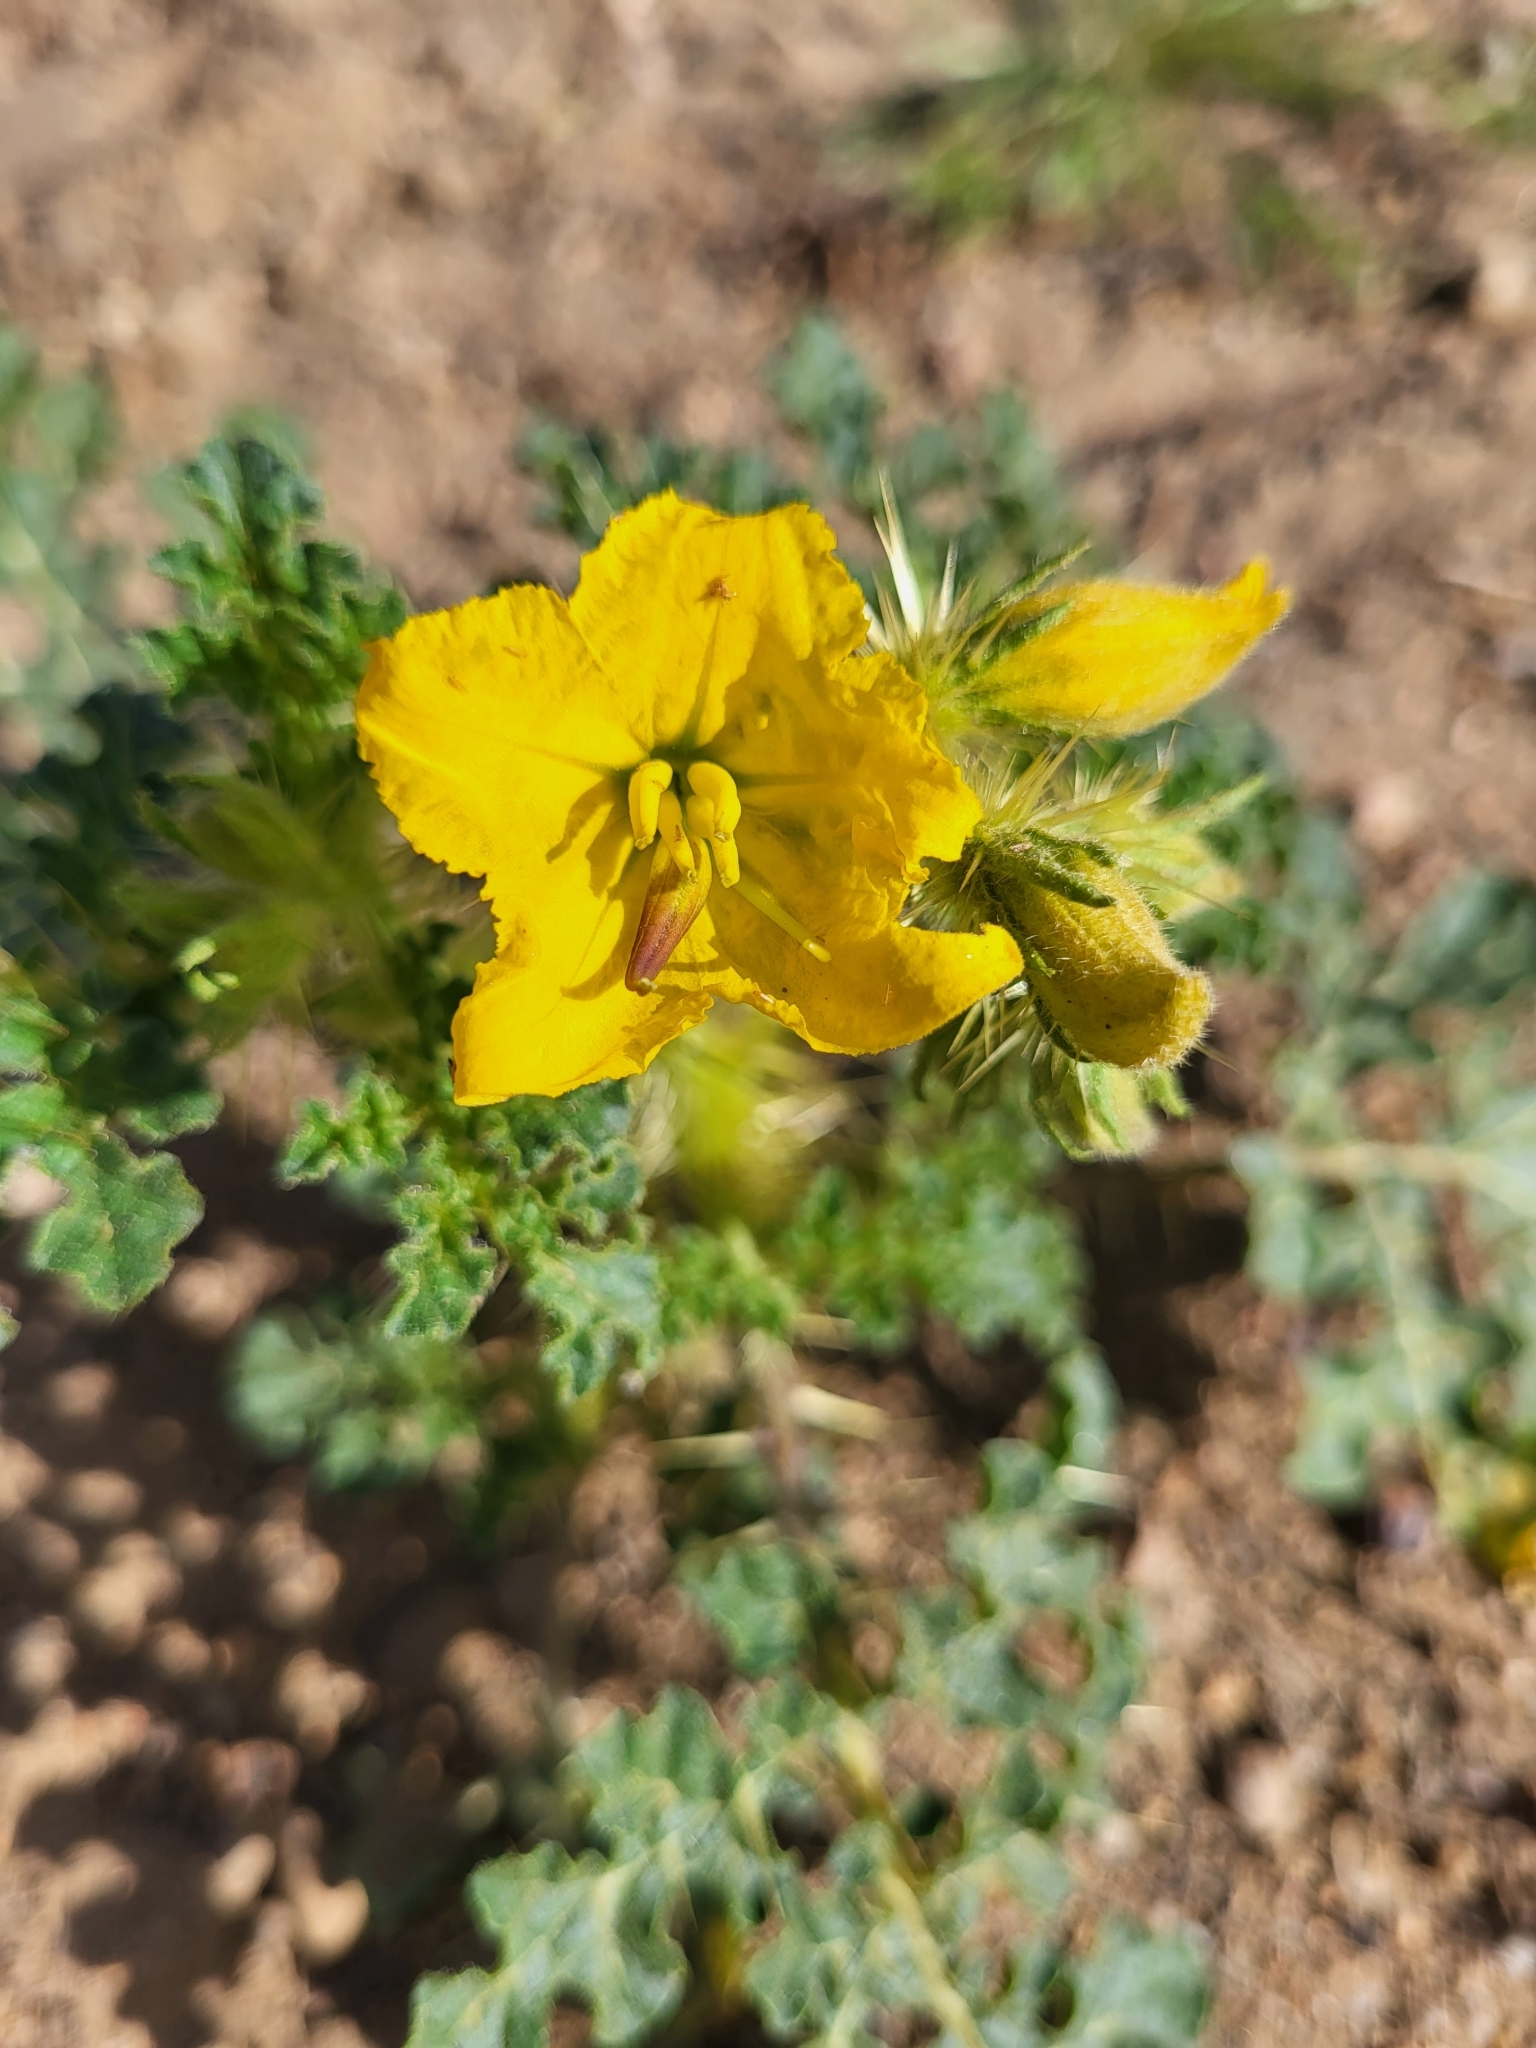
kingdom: Plantae
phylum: Tracheophyta
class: Magnoliopsida
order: Solanales
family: Solanaceae
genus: Solanum
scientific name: Solanum angustifolium
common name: Buffalobur nightshade
